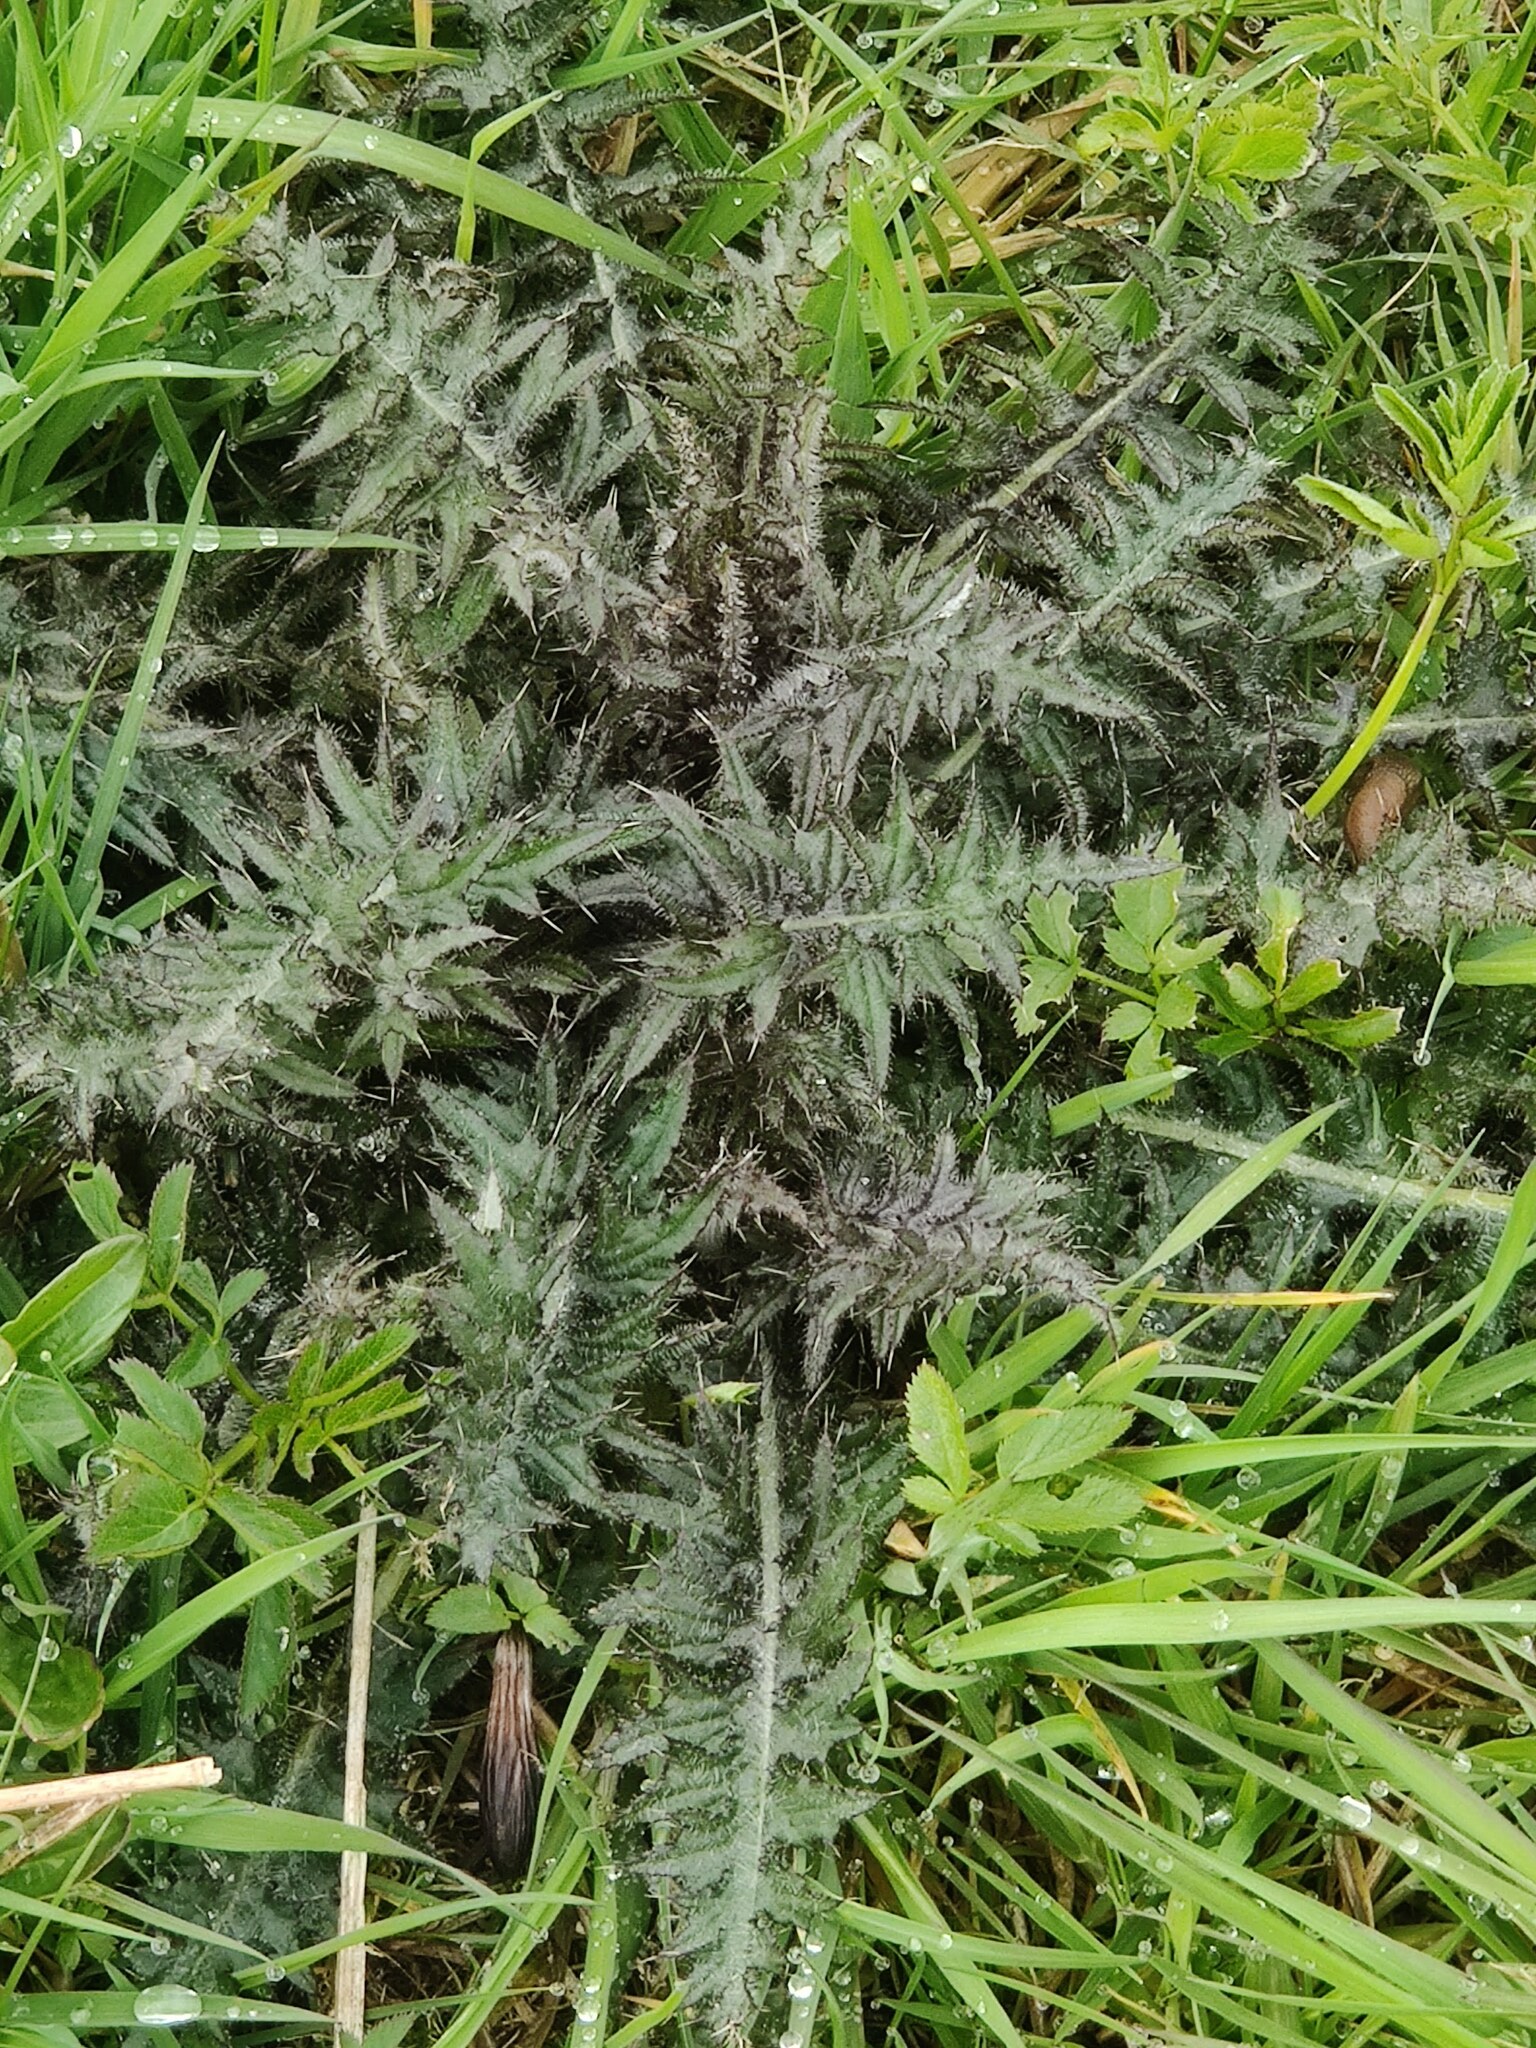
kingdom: Plantae
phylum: Tracheophyta
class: Magnoliopsida
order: Asterales
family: Asteraceae
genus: Cirsium
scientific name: Cirsium palustre
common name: Marsh thistle
